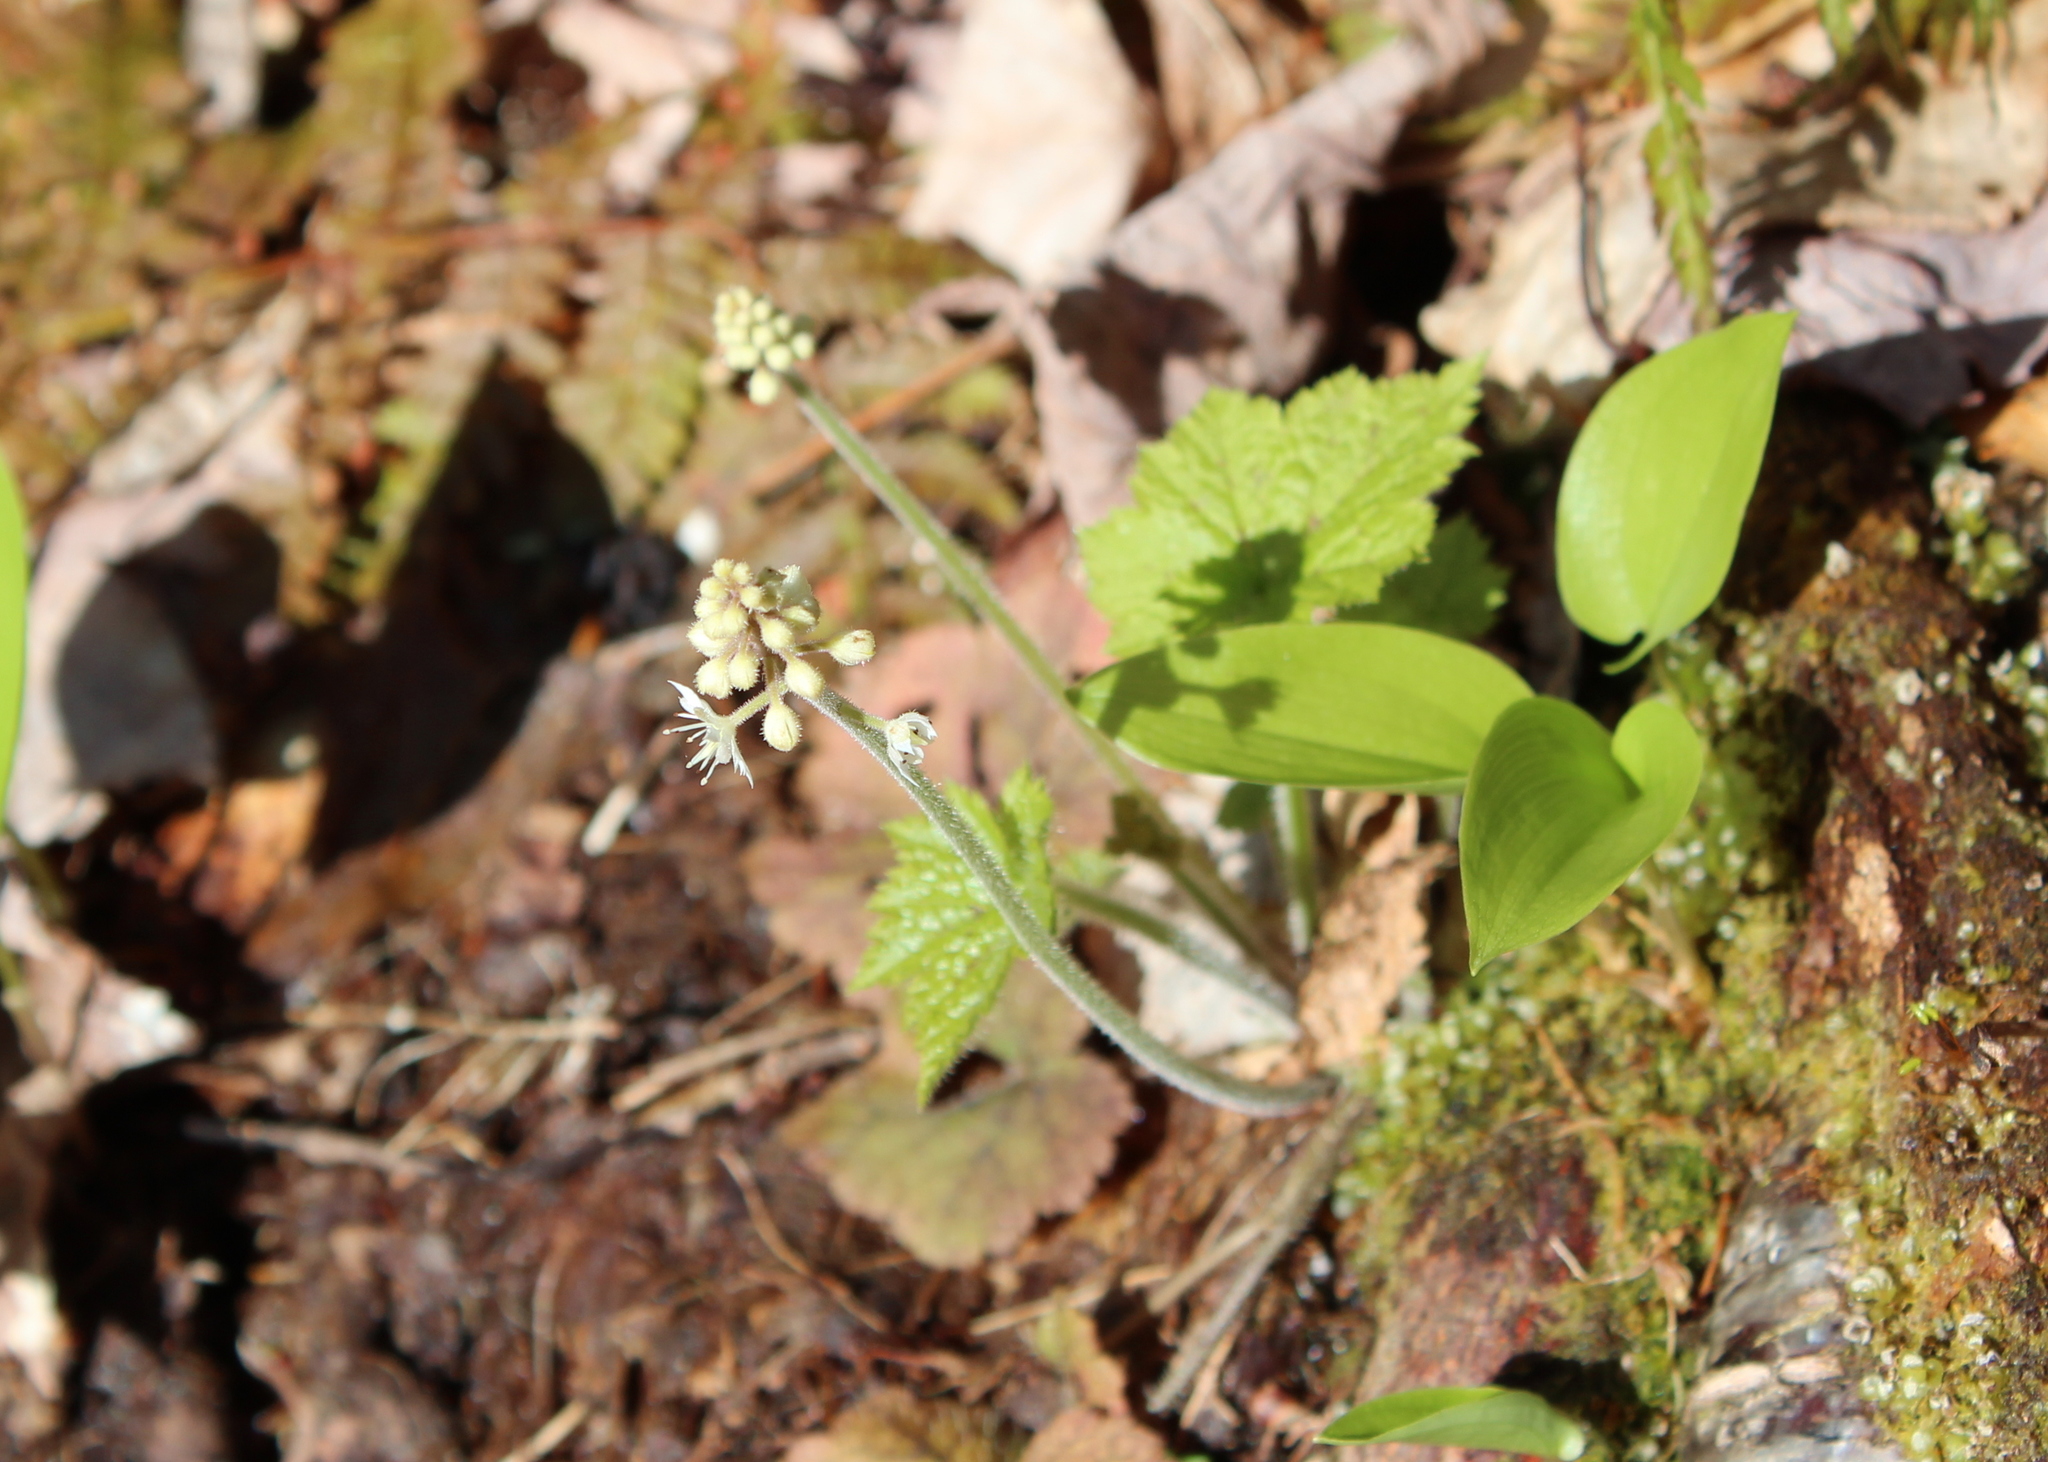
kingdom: Plantae
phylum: Tracheophyta
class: Magnoliopsida
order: Saxifragales
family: Saxifragaceae
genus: Tiarella
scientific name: Tiarella stolonifera
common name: Stoloniferous foamflower
